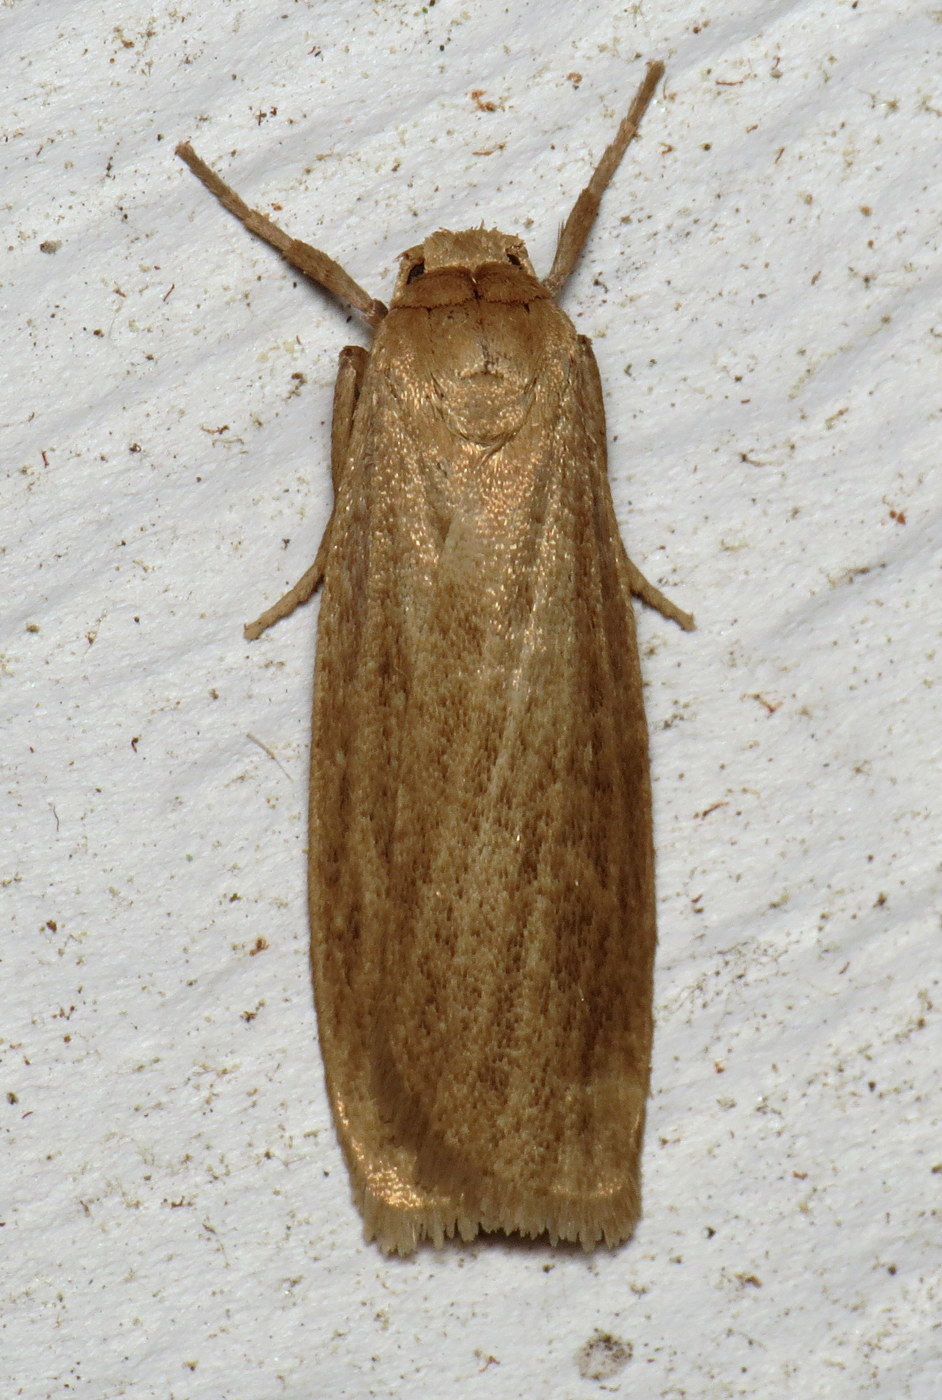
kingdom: Animalia
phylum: Arthropoda
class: Insecta
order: Lepidoptera
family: Erebidae
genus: Crambidia
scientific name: Crambidia pallida
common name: Pale lichen moth
